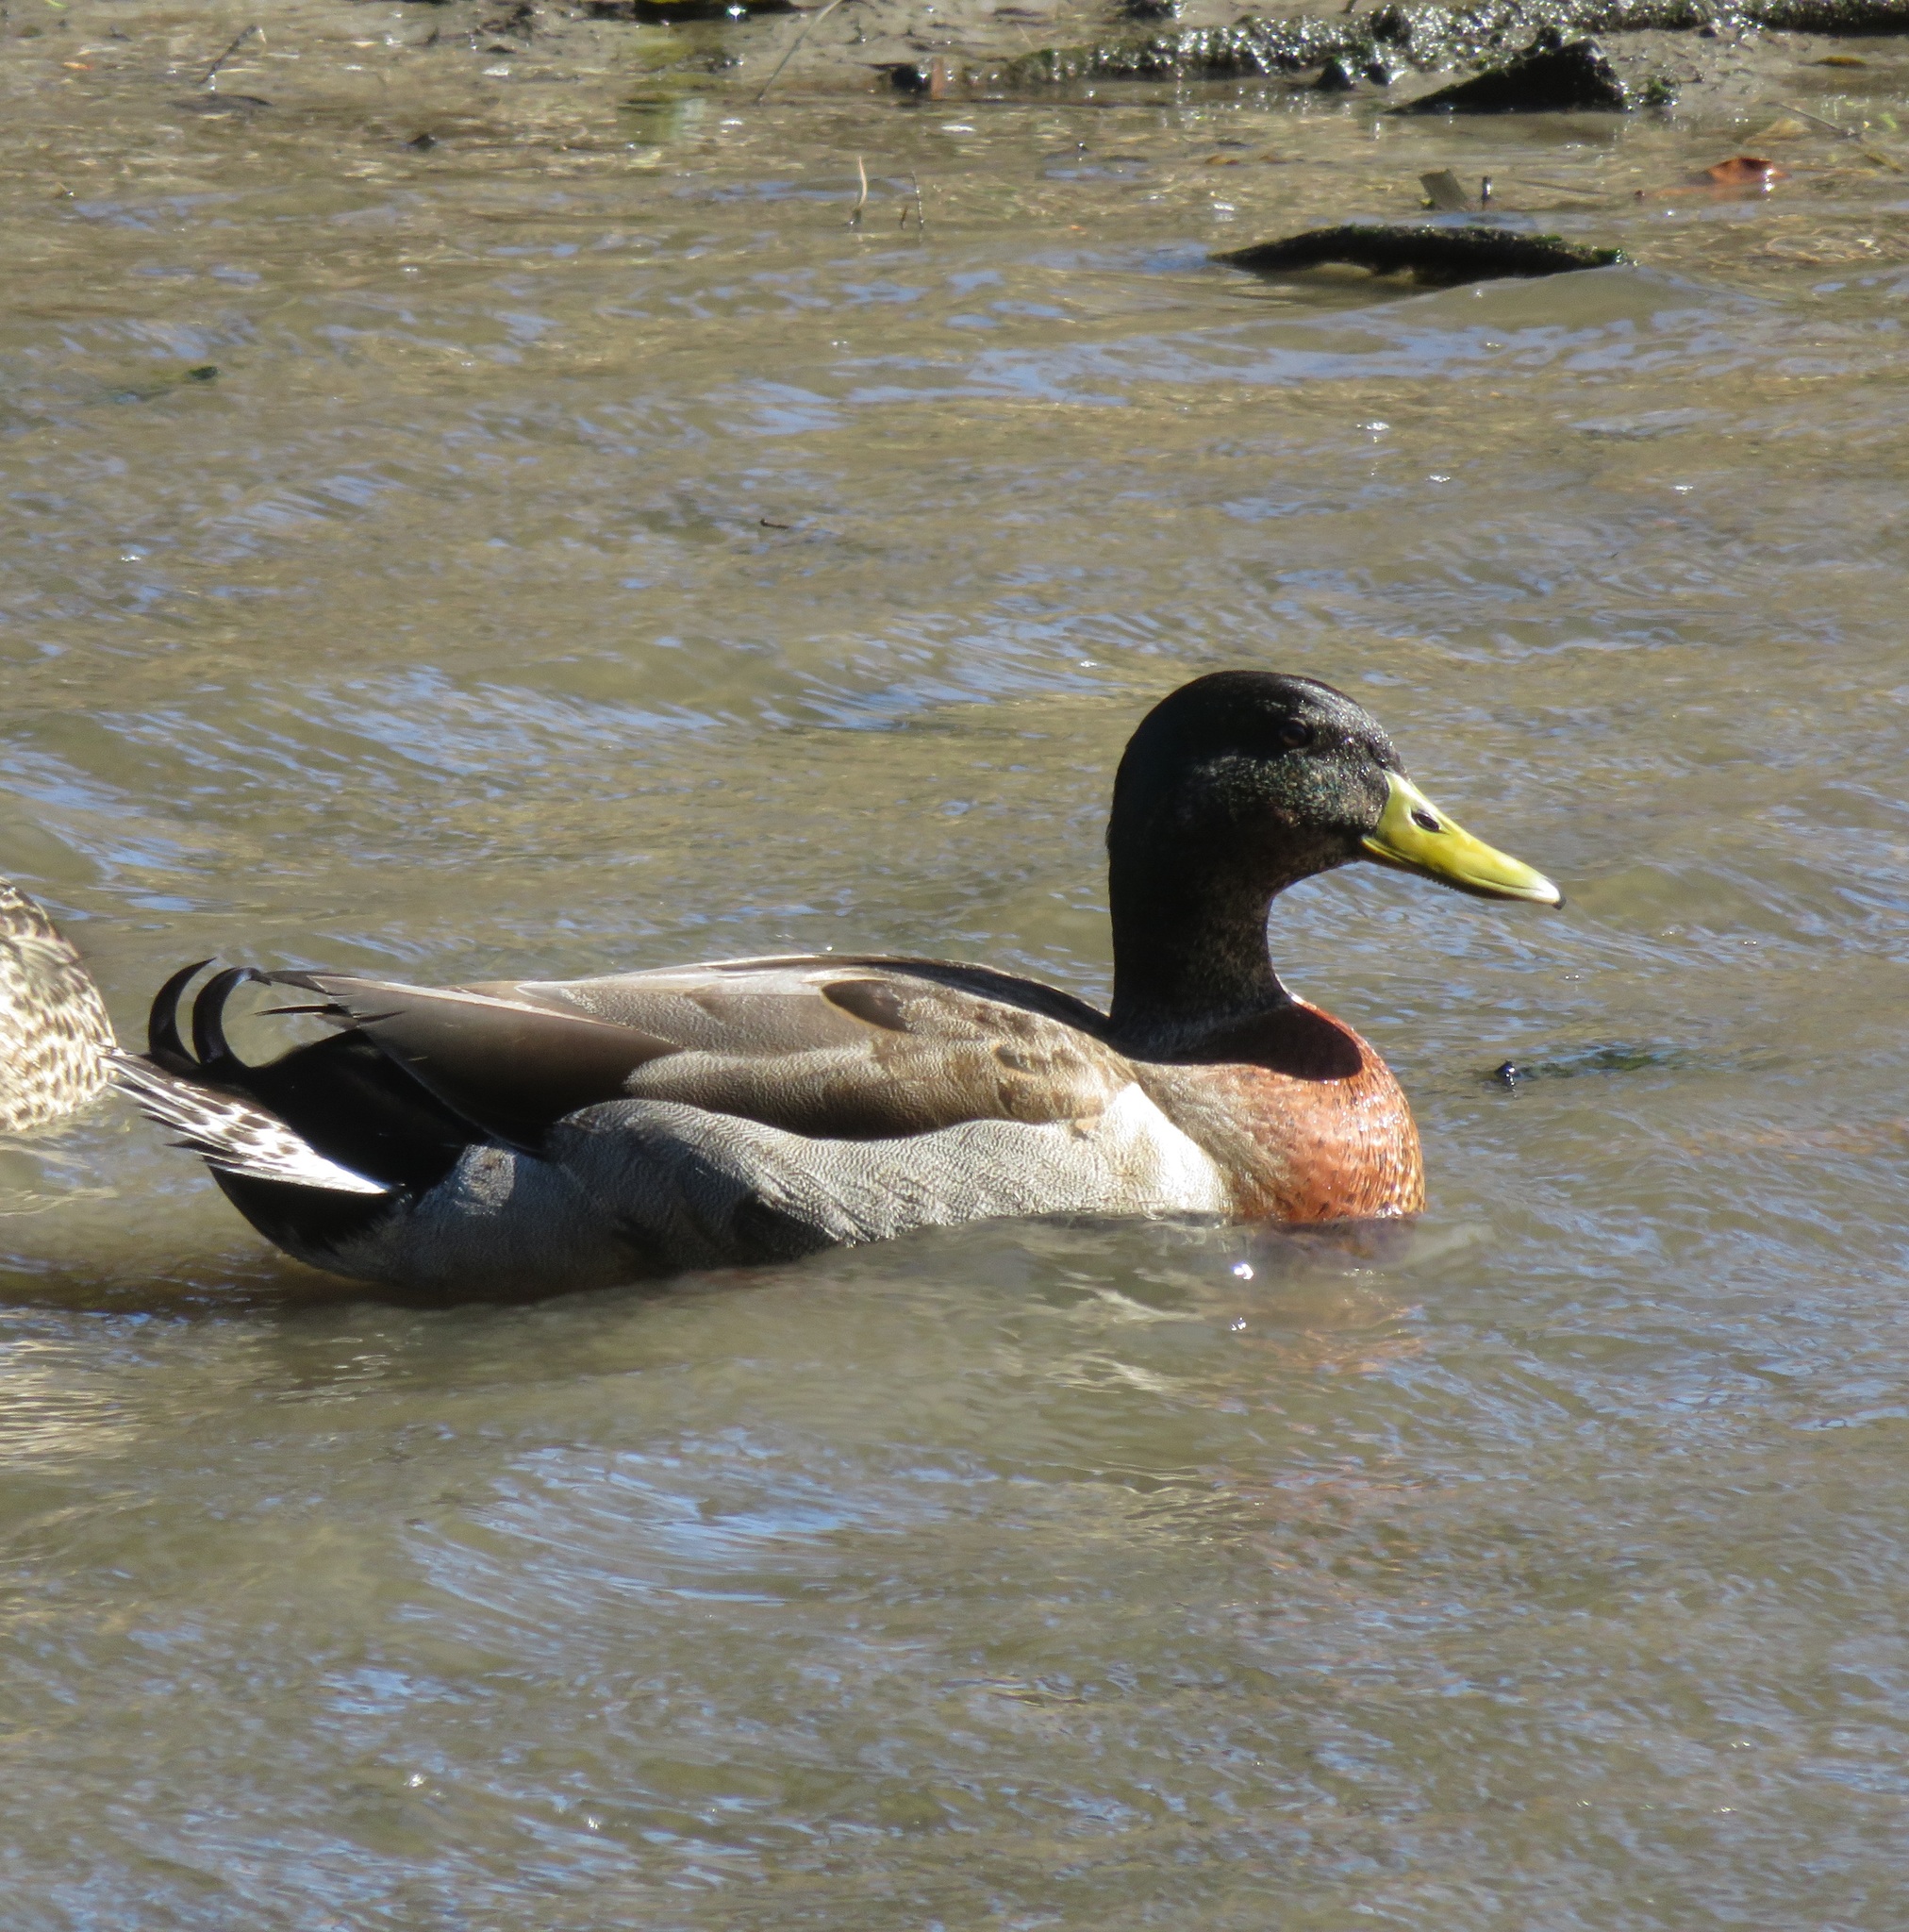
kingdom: Animalia
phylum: Chordata
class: Aves
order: Anseriformes
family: Anatidae
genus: Anas
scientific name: Anas
